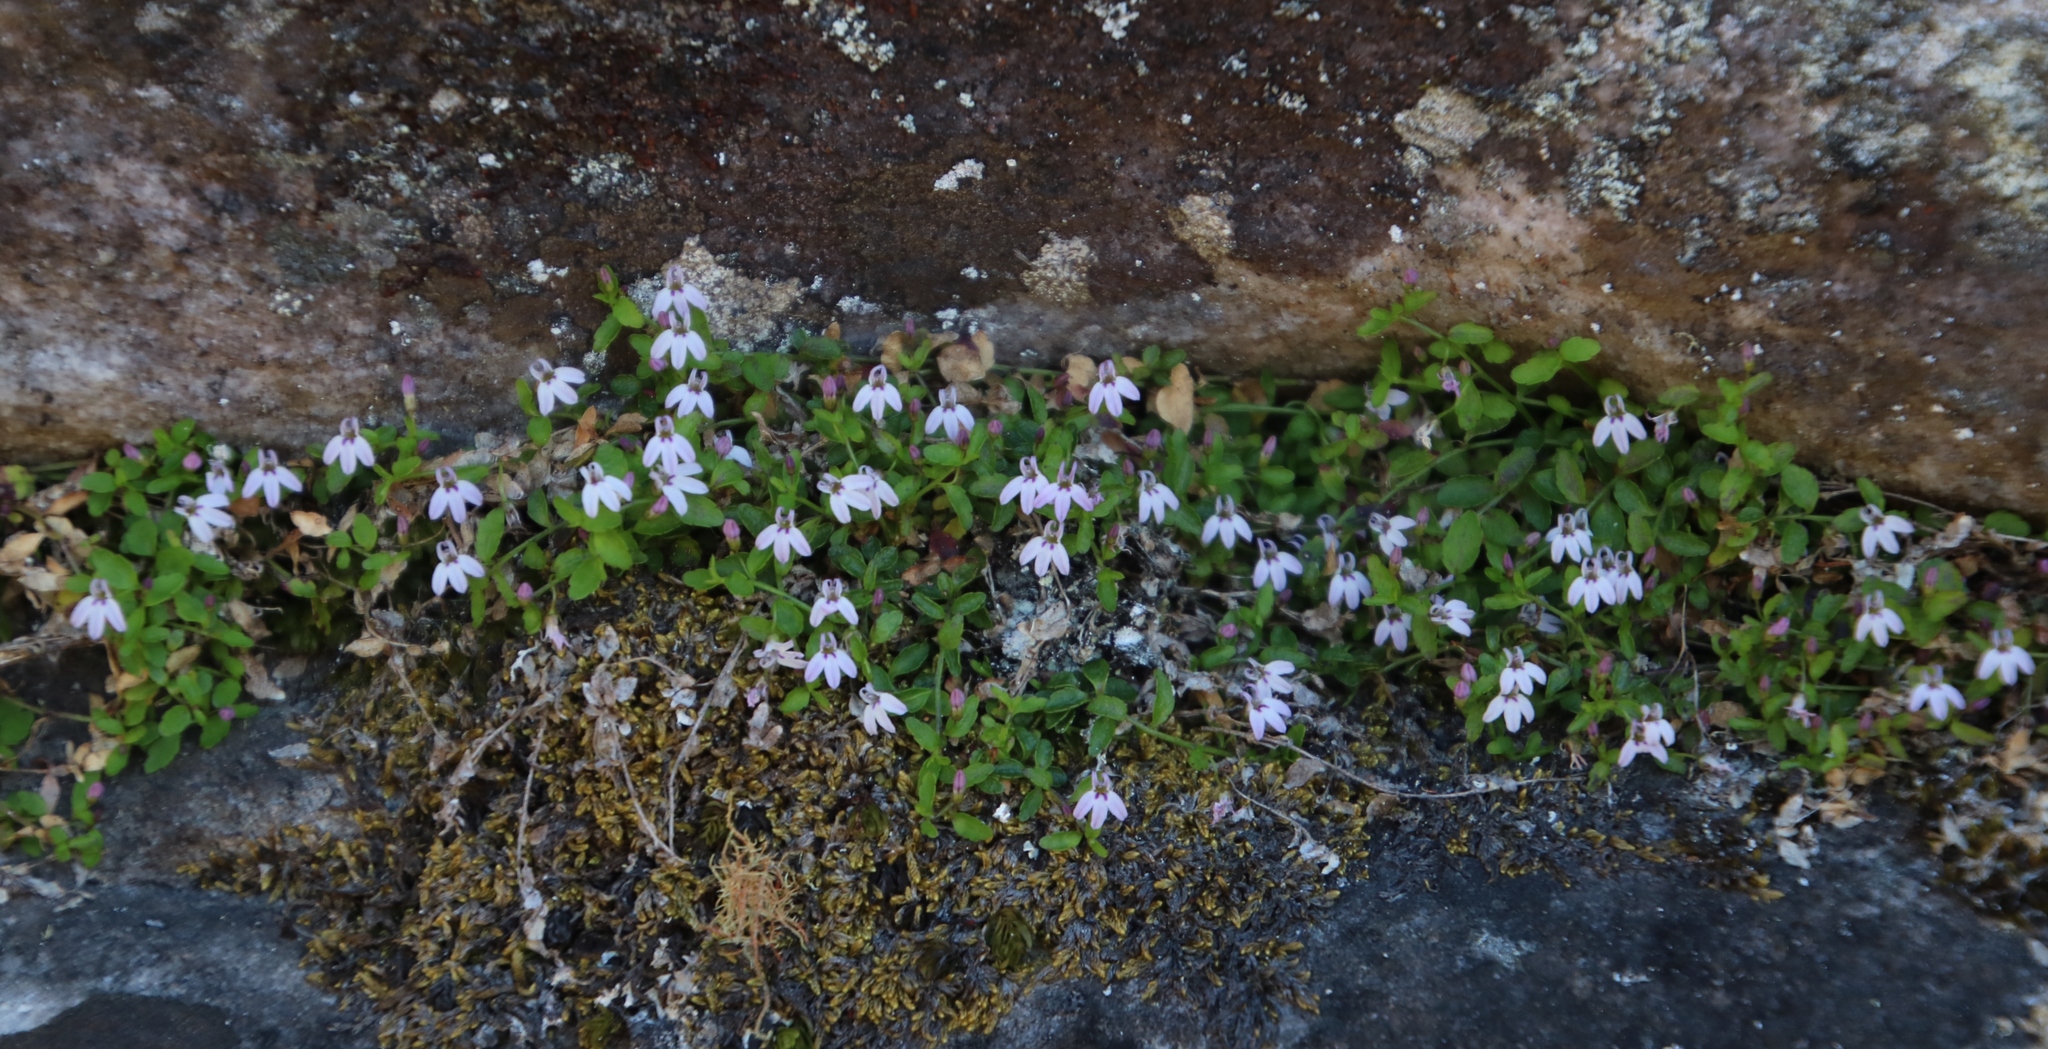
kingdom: Plantae
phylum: Tracheophyta
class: Magnoliopsida
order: Asterales
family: Campanulaceae
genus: Unigenes
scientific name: Unigenes humifusa
